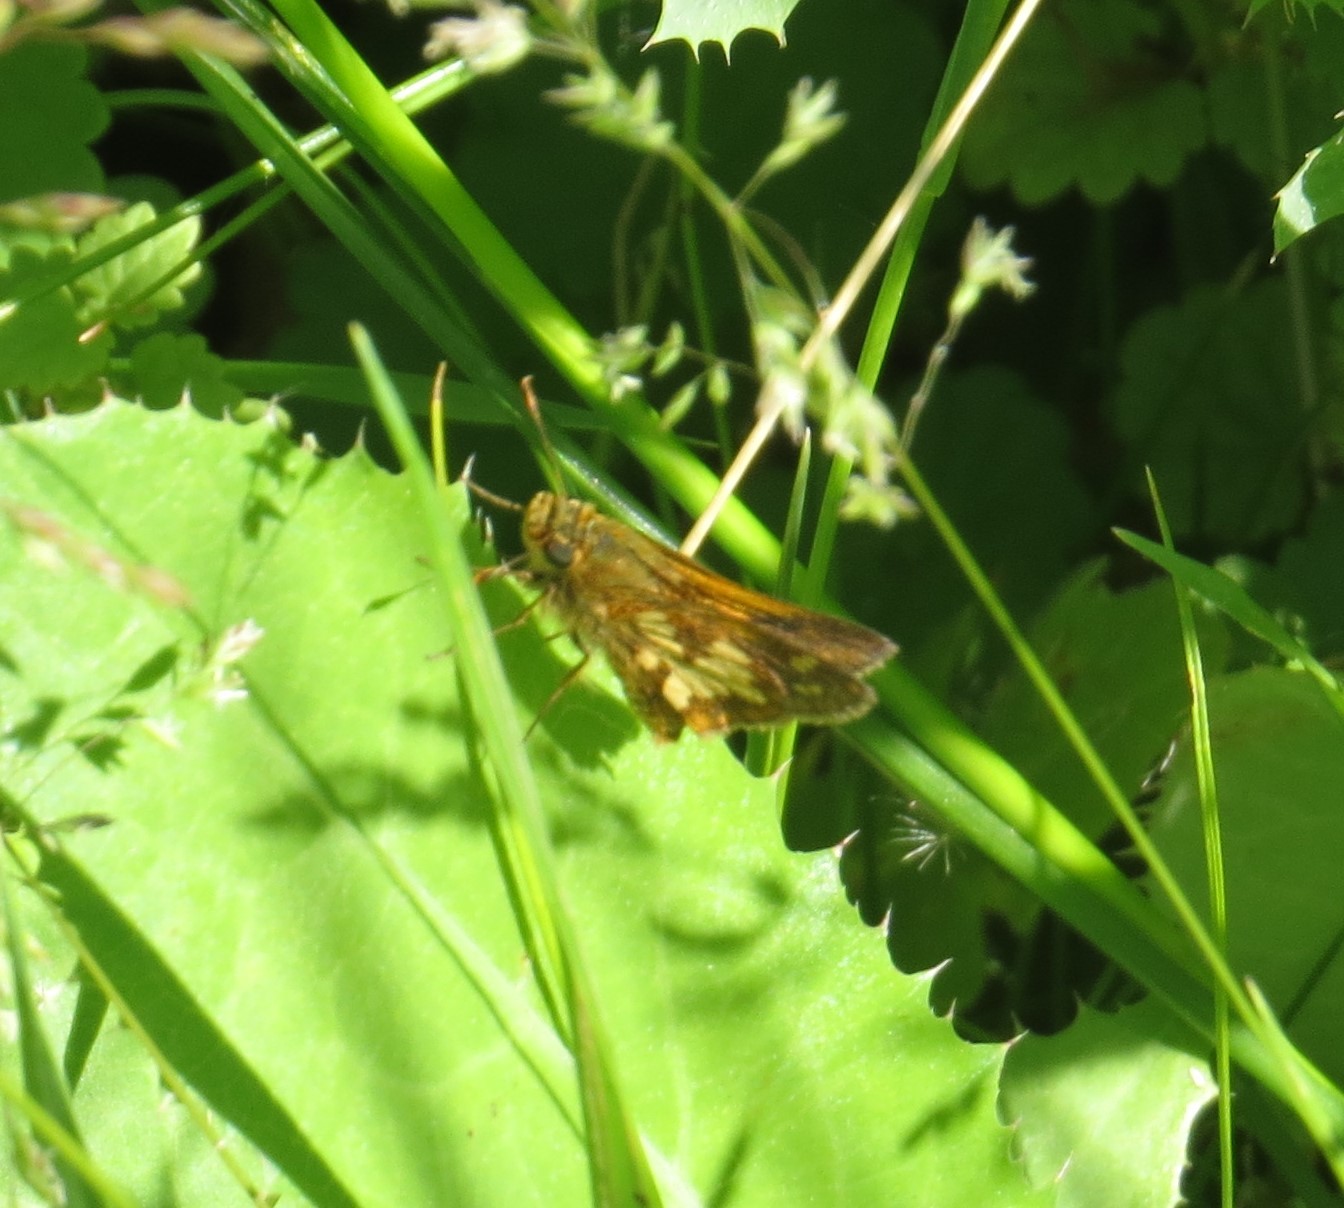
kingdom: Animalia
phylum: Arthropoda
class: Insecta
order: Lepidoptera
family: Hesperiidae
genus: Polites
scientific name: Polites coras
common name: Peck's skipper
